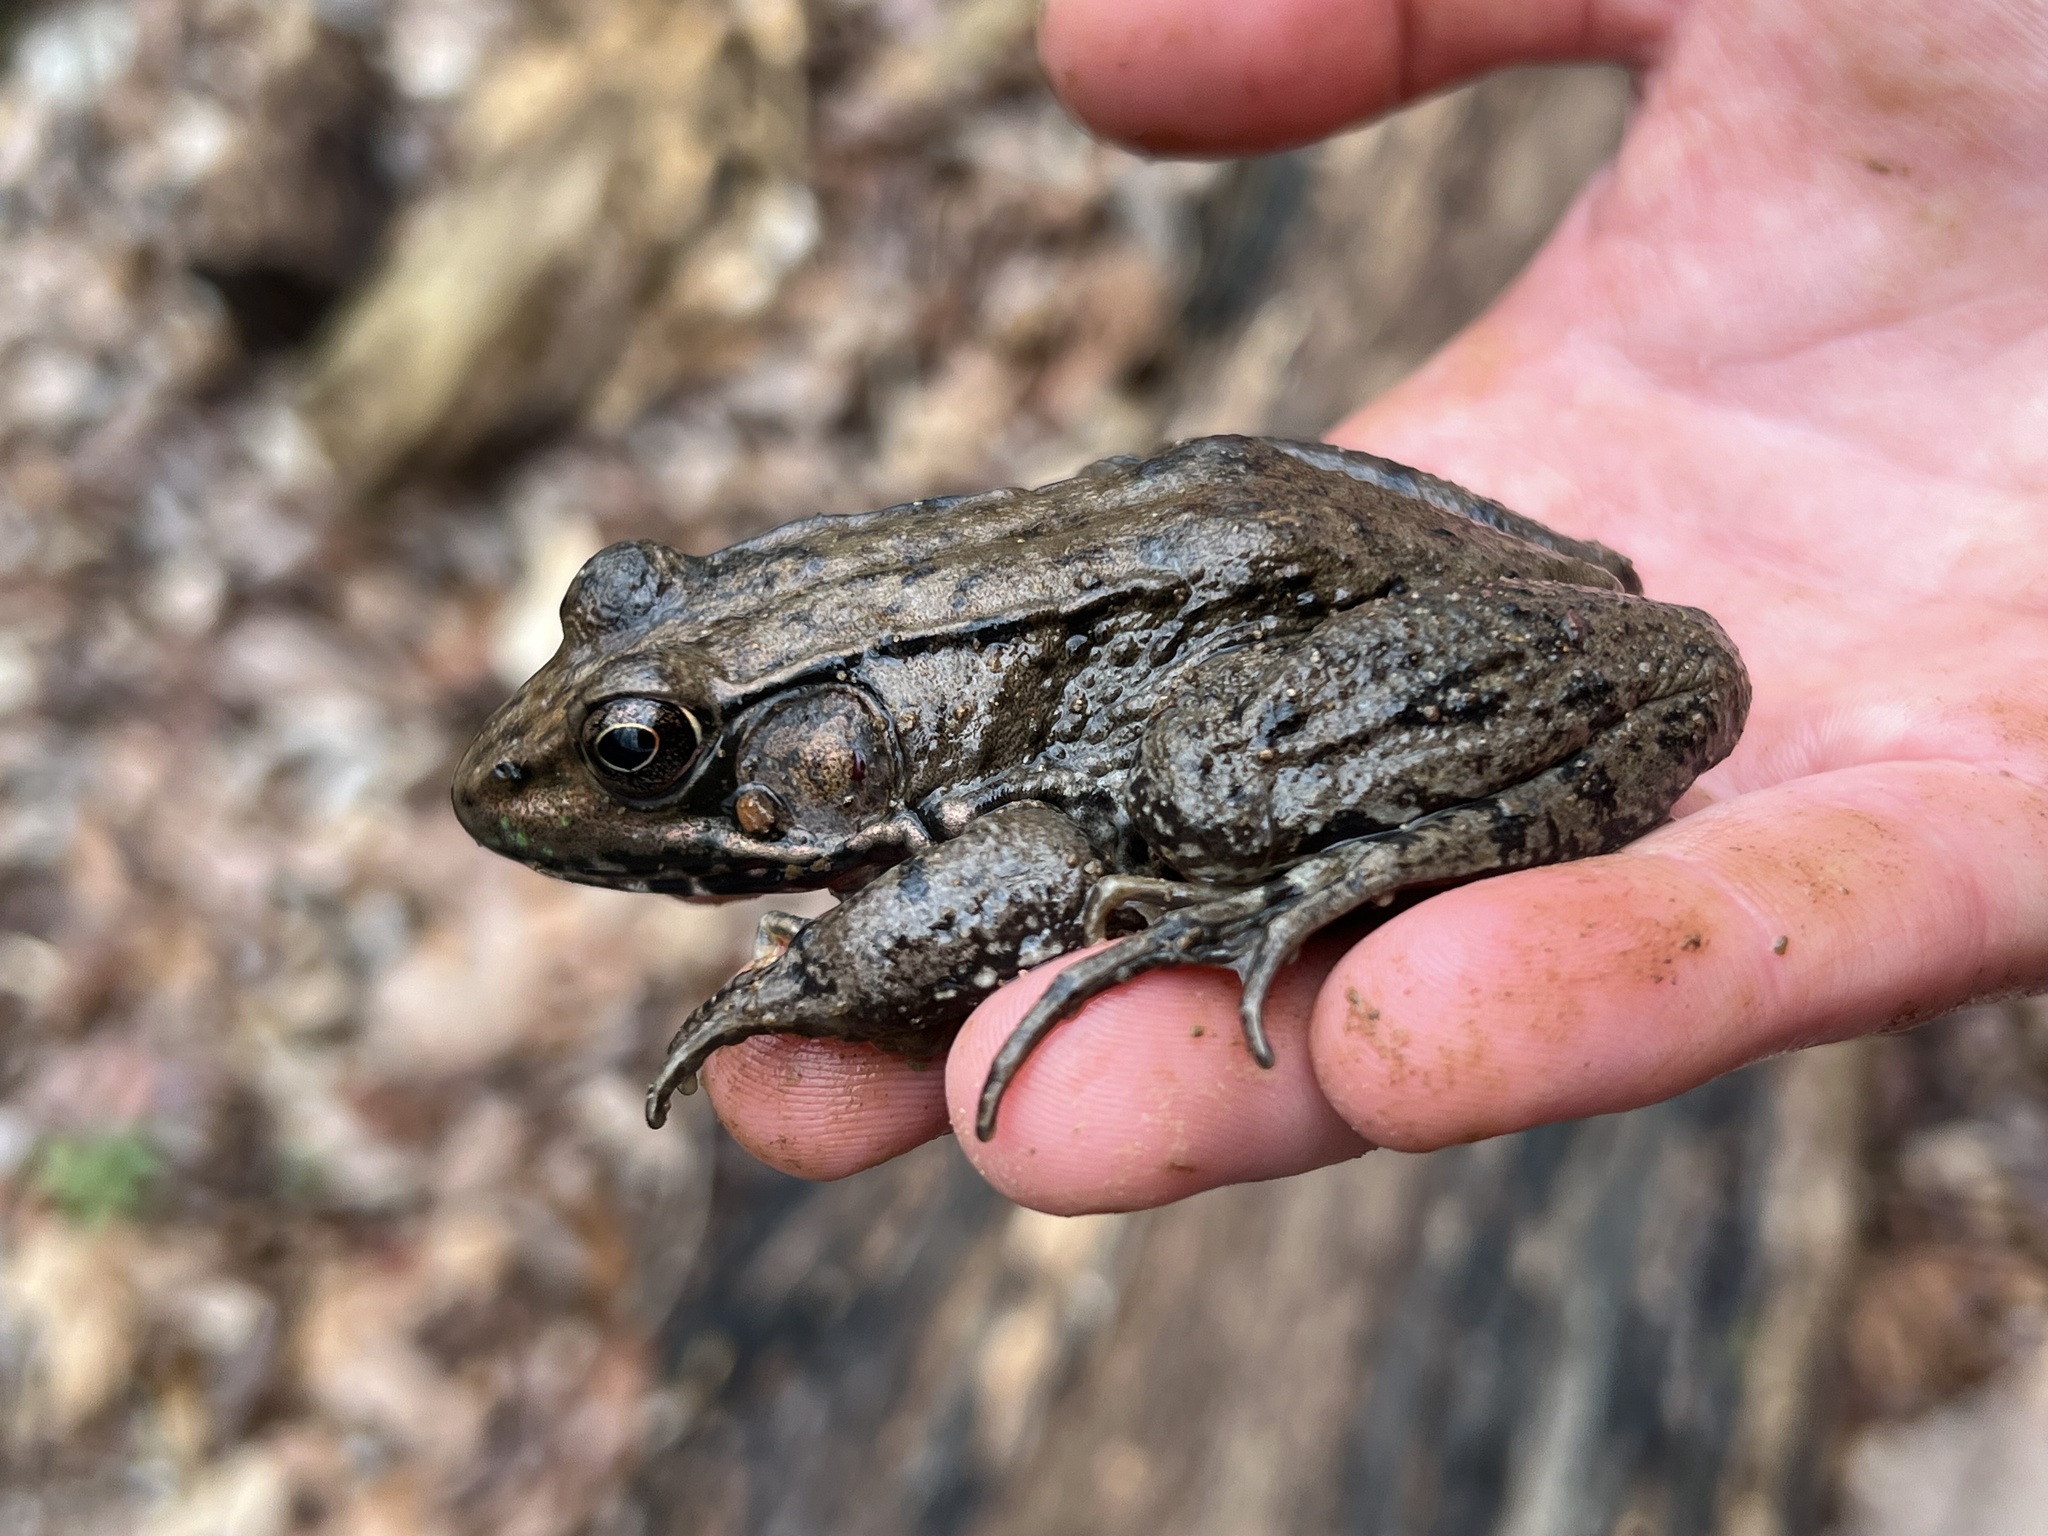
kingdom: Animalia
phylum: Chordata
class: Amphibia
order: Anura
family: Ranidae
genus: Lithobates
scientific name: Lithobates clamitans
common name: Green frog
